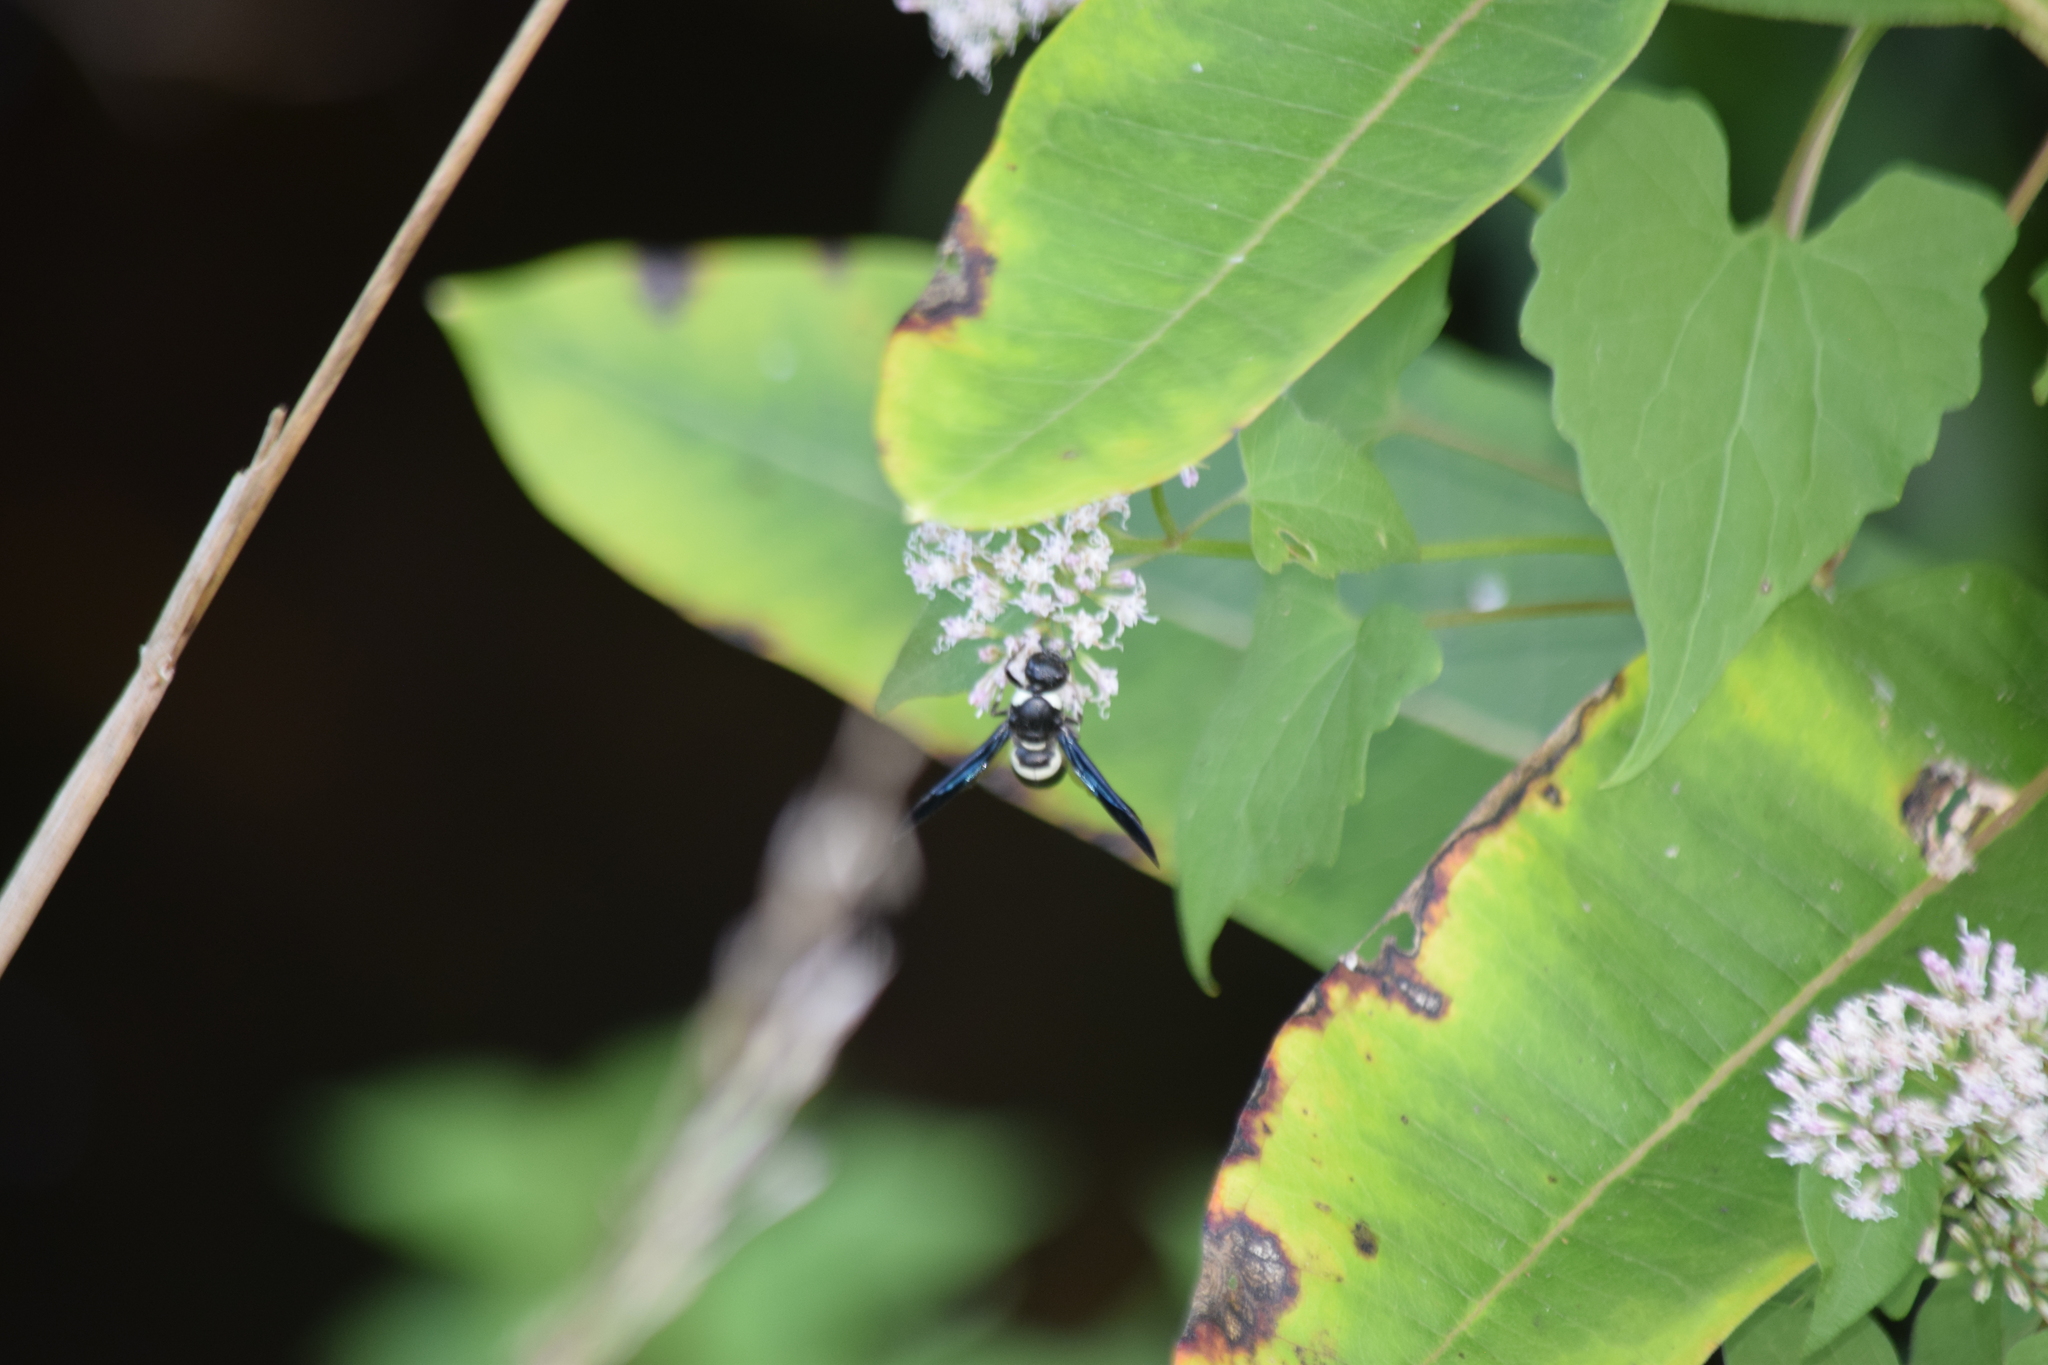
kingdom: Animalia
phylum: Arthropoda
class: Insecta
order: Hymenoptera
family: Eumenidae
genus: Monobia
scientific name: Monobia quadridens
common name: Four-toothed mason wasp
